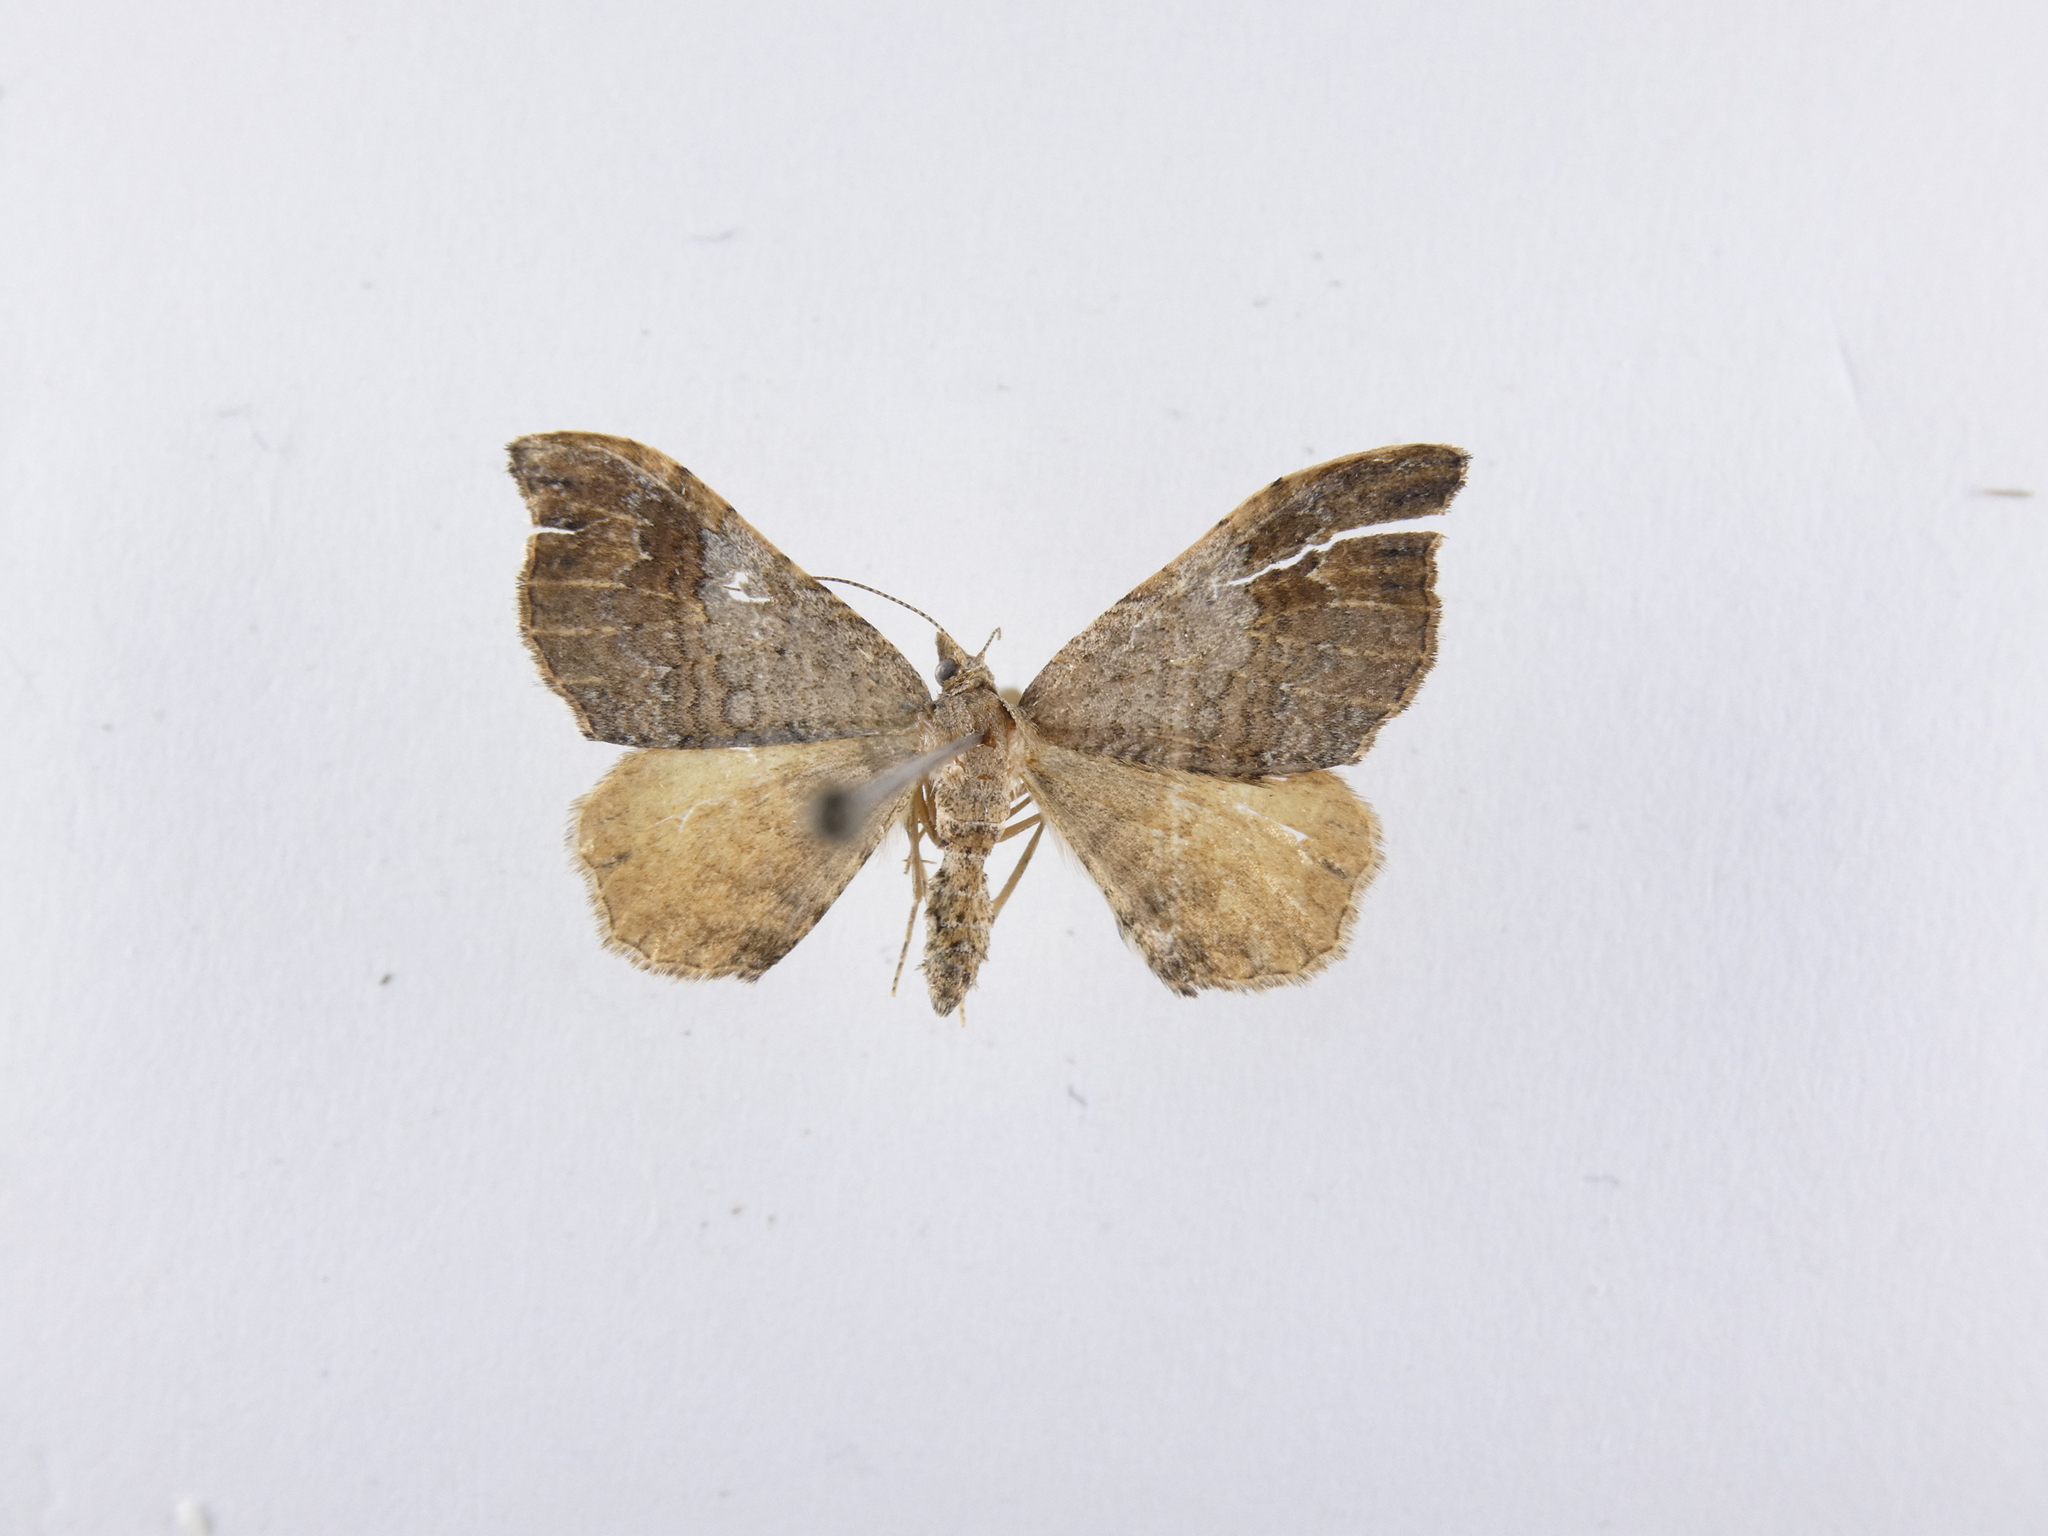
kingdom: Animalia
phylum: Arthropoda
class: Insecta
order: Lepidoptera
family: Geometridae
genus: Homodotis
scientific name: Homodotis megaspilata
